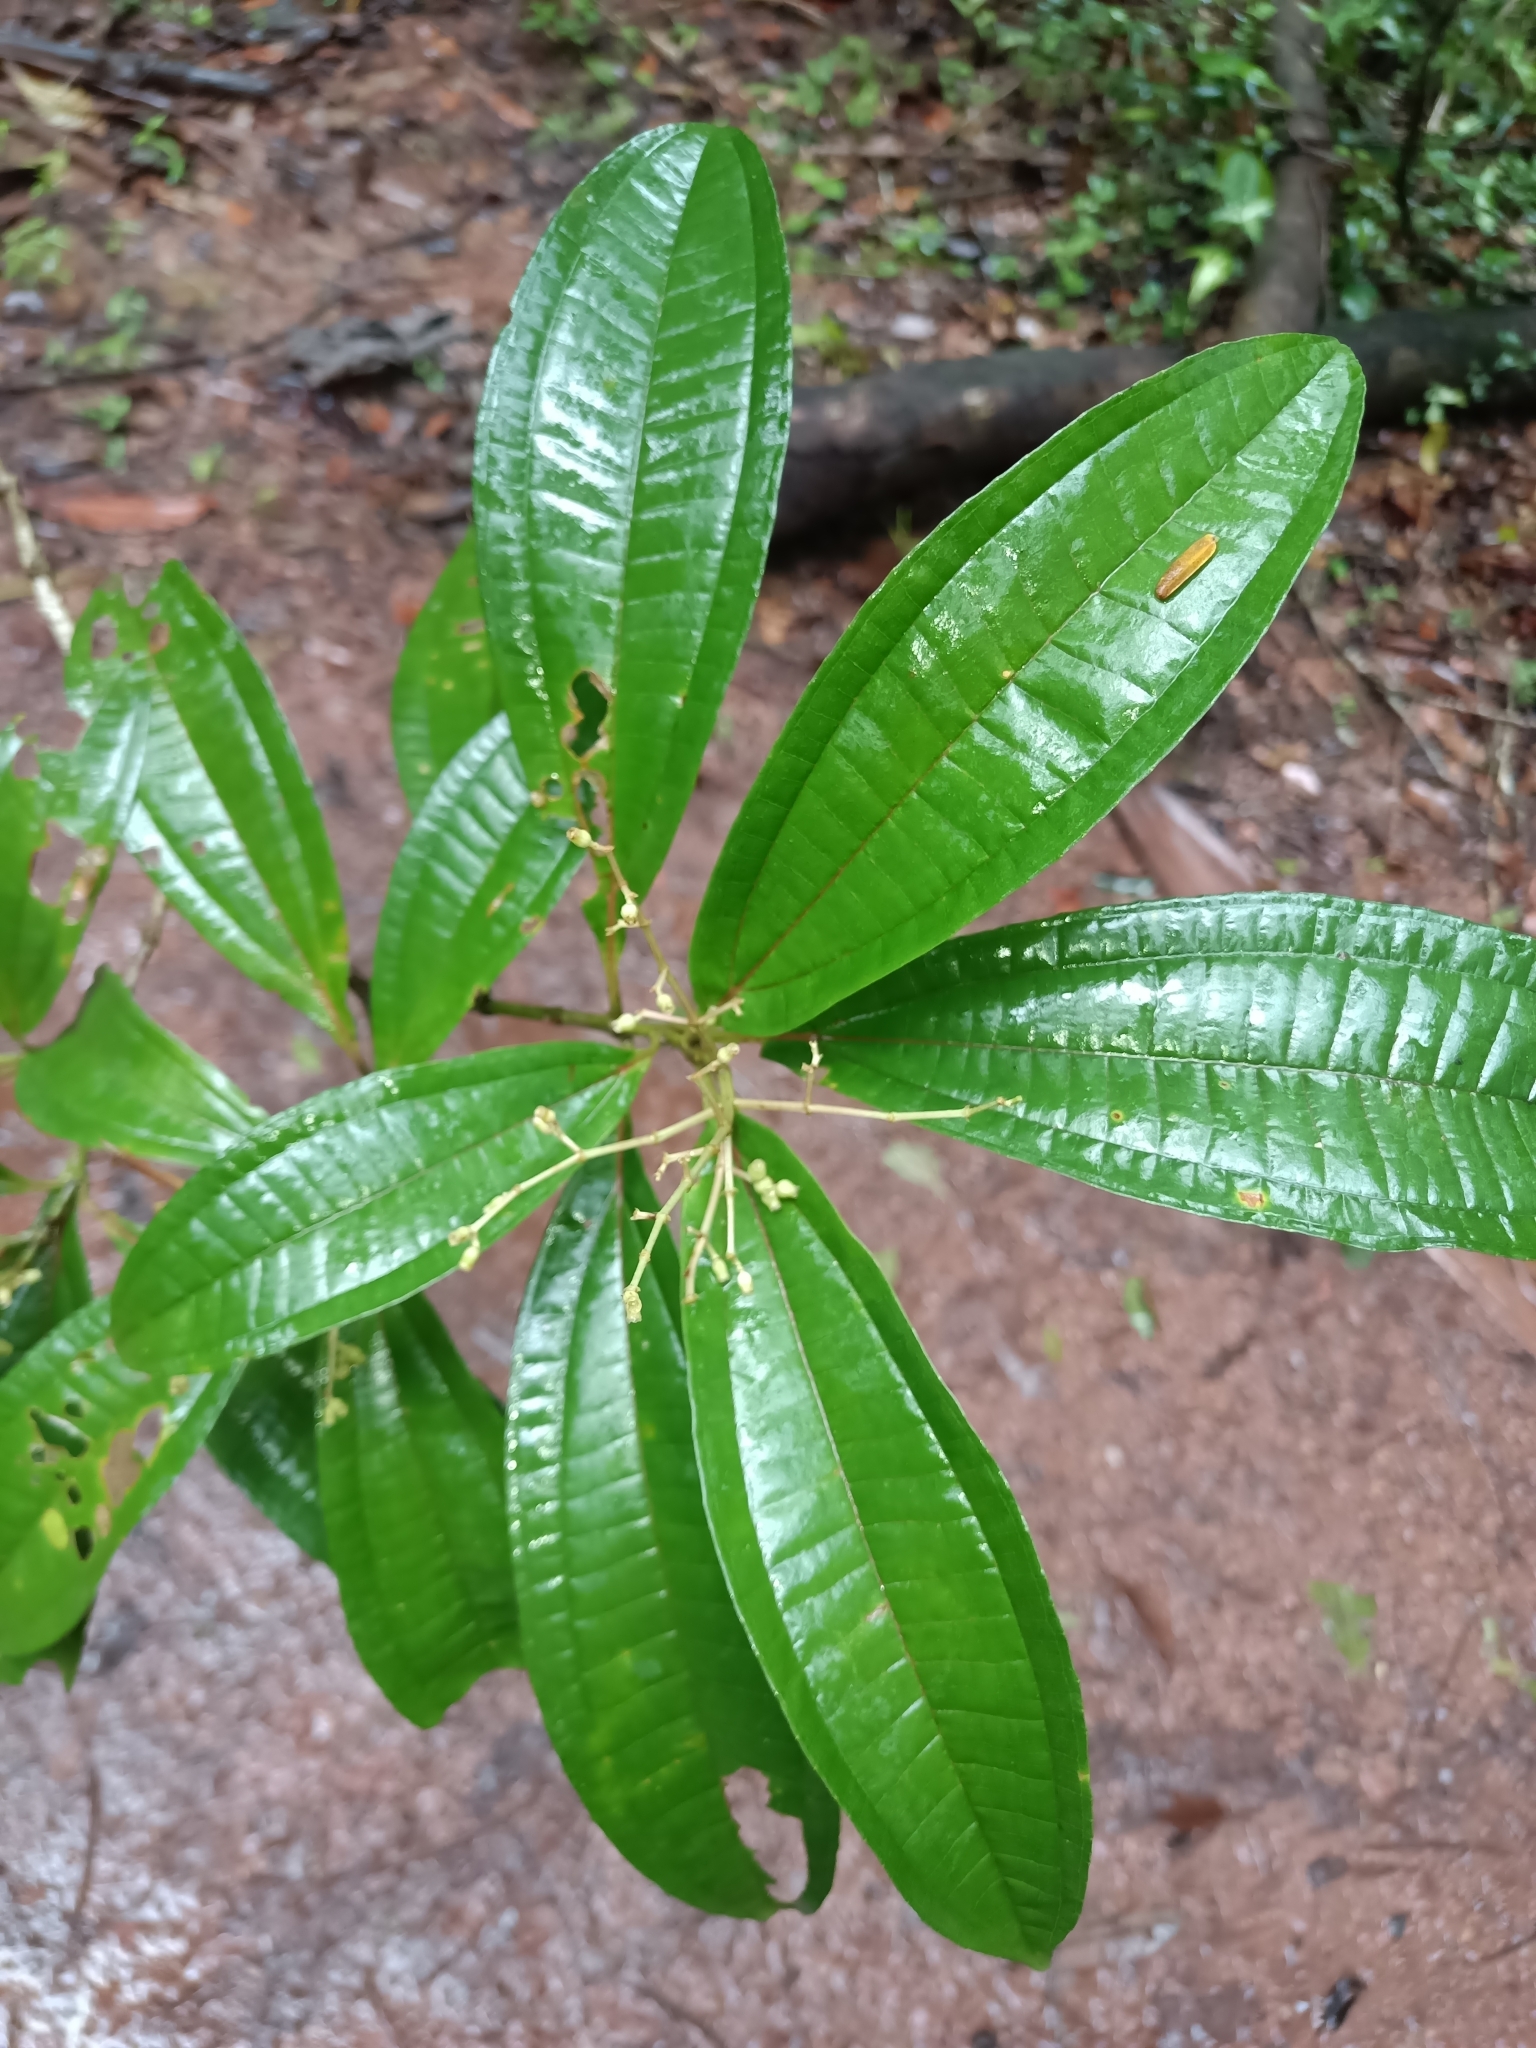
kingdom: Plantae
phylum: Tracheophyta
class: Magnoliopsida
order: Myrtales
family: Melastomataceae
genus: Miconia
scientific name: Miconia prasina
